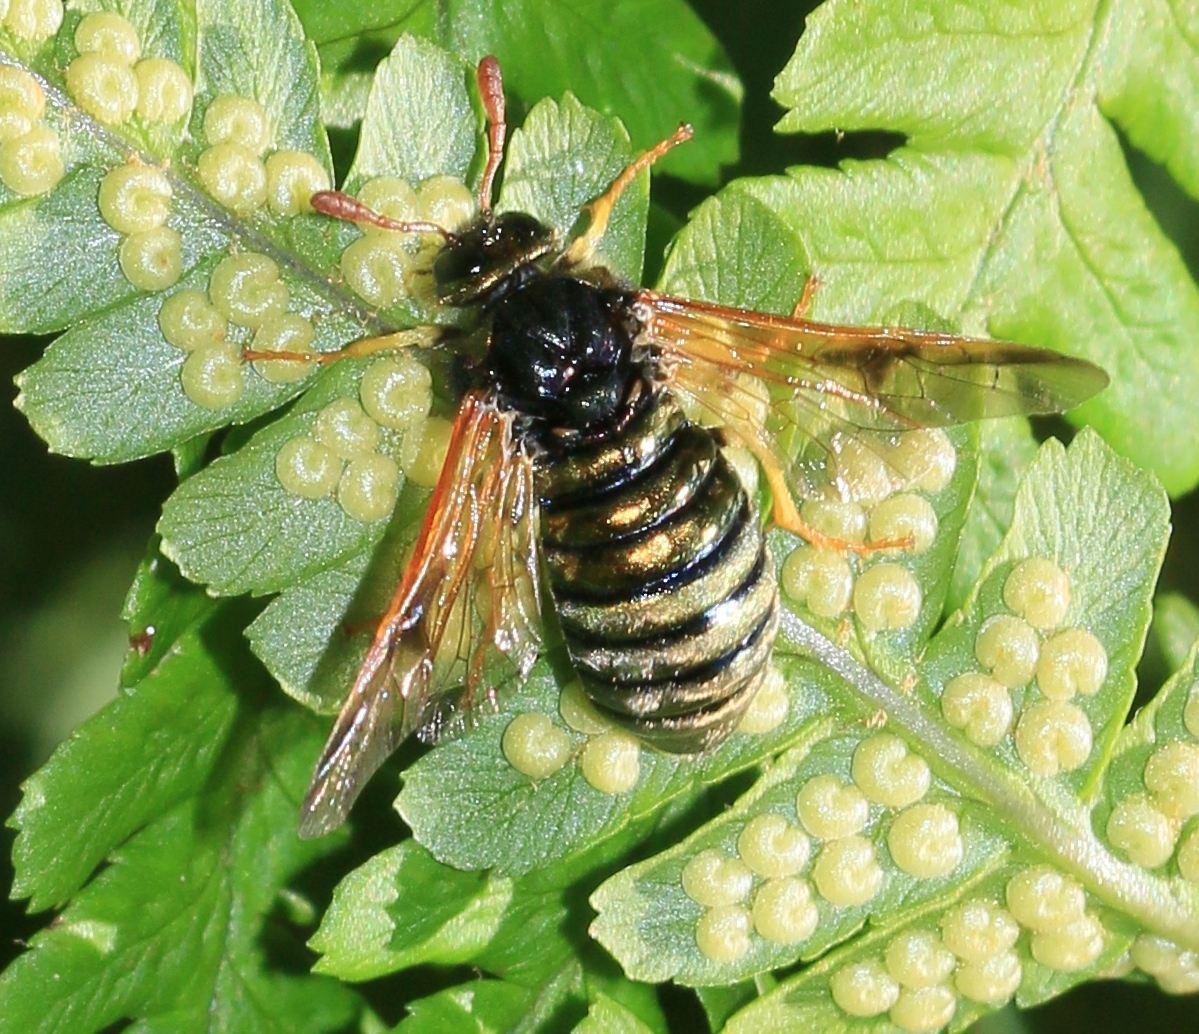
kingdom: Animalia
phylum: Arthropoda
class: Insecta
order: Hymenoptera
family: Cimbicidae
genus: Abia
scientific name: Abia nitens
